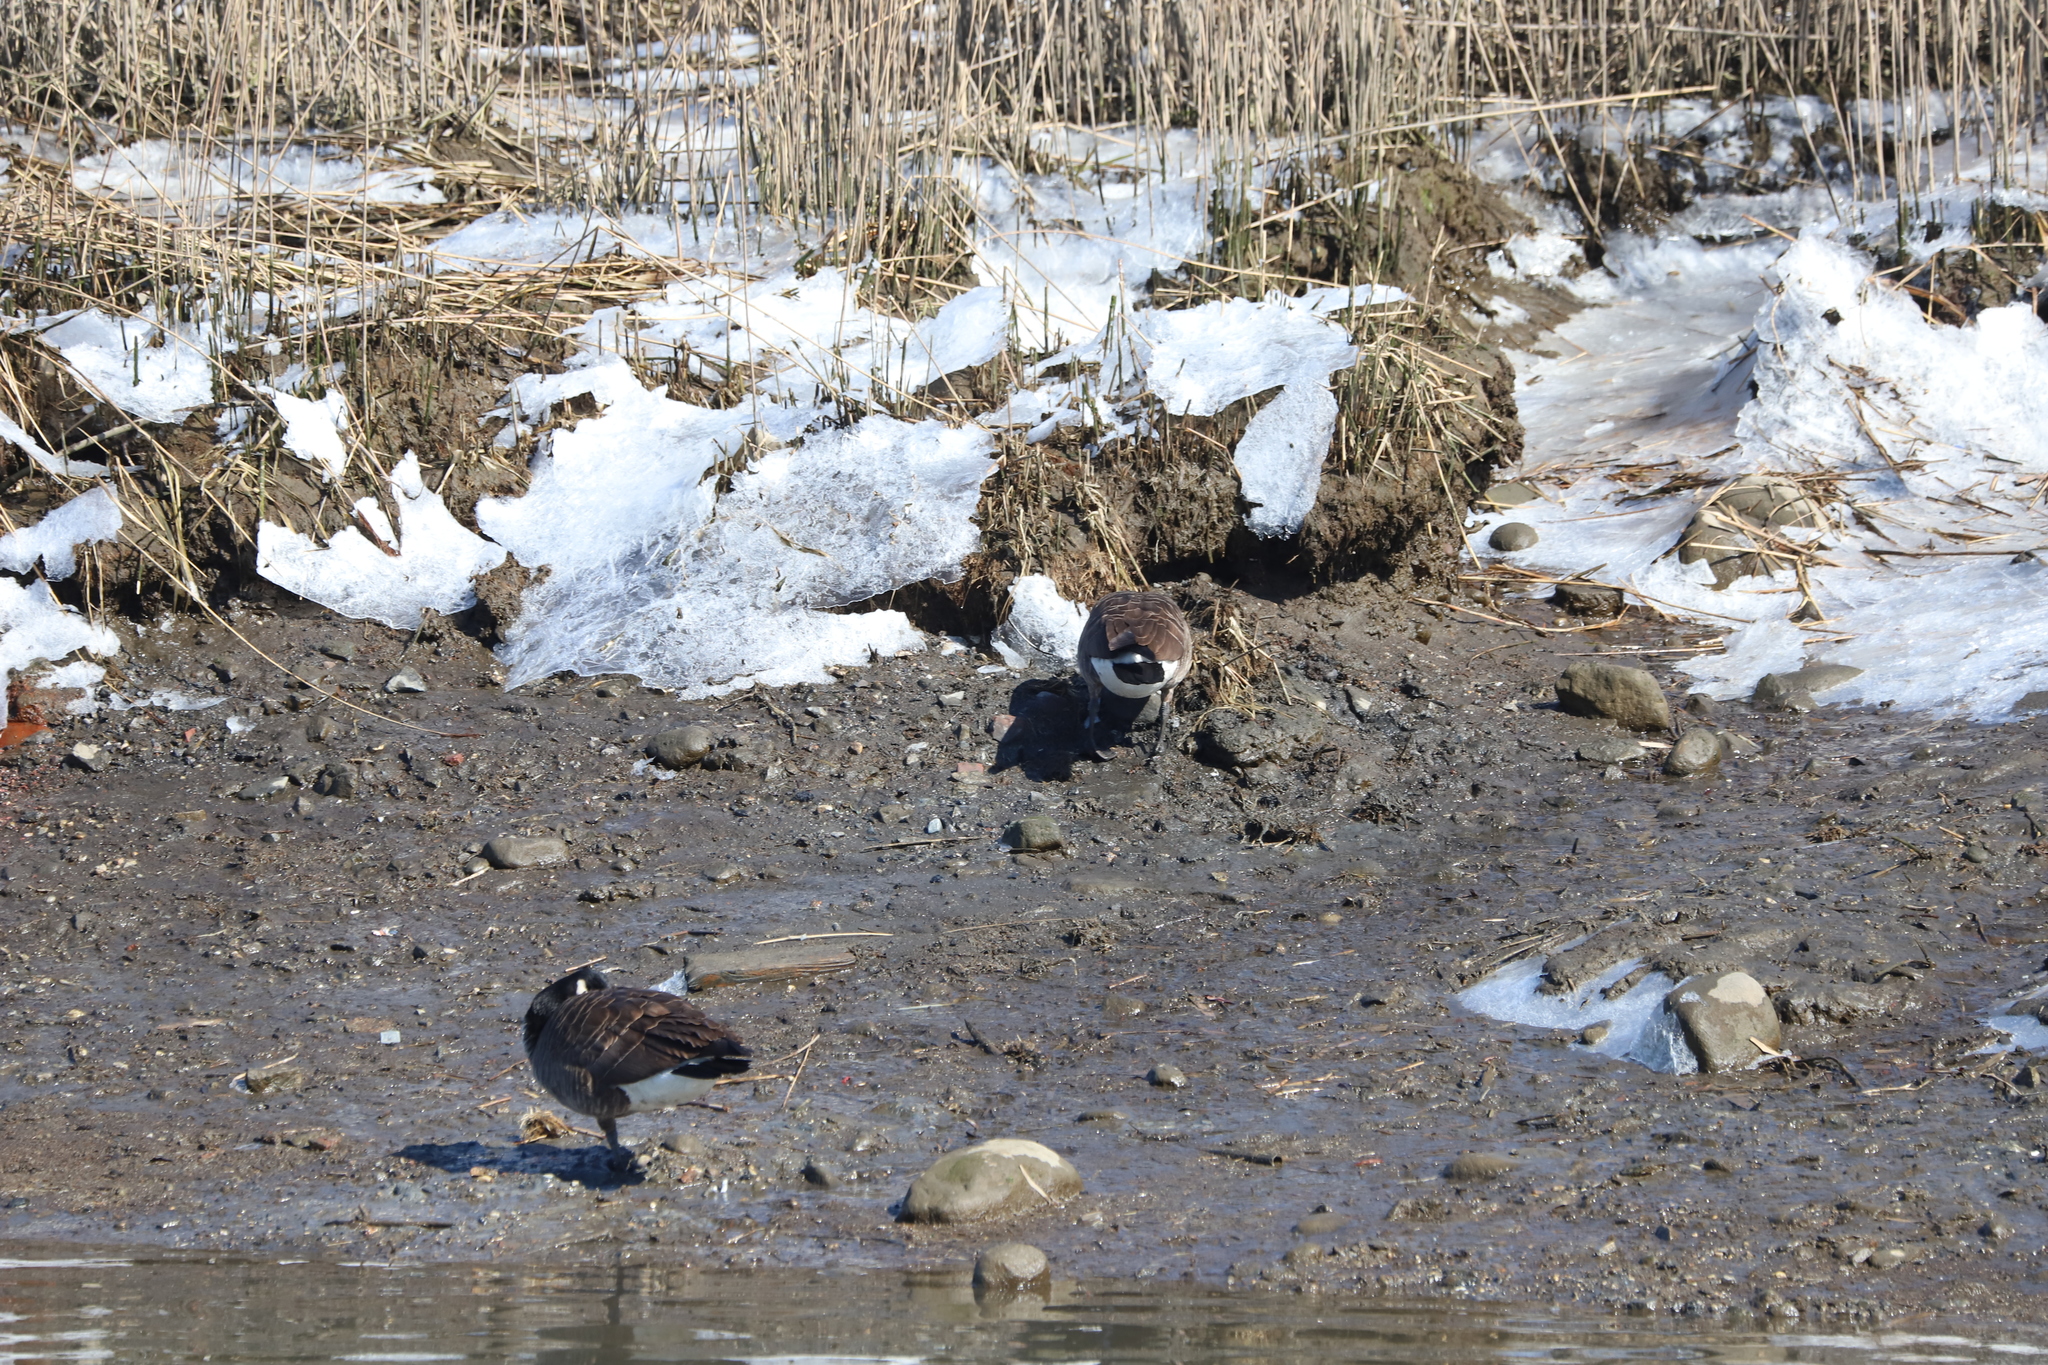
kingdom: Animalia
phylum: Chordata
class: Aves
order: Anseriformes
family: Anatidae
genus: Branta
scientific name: Branta canadensis
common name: Canada goose
